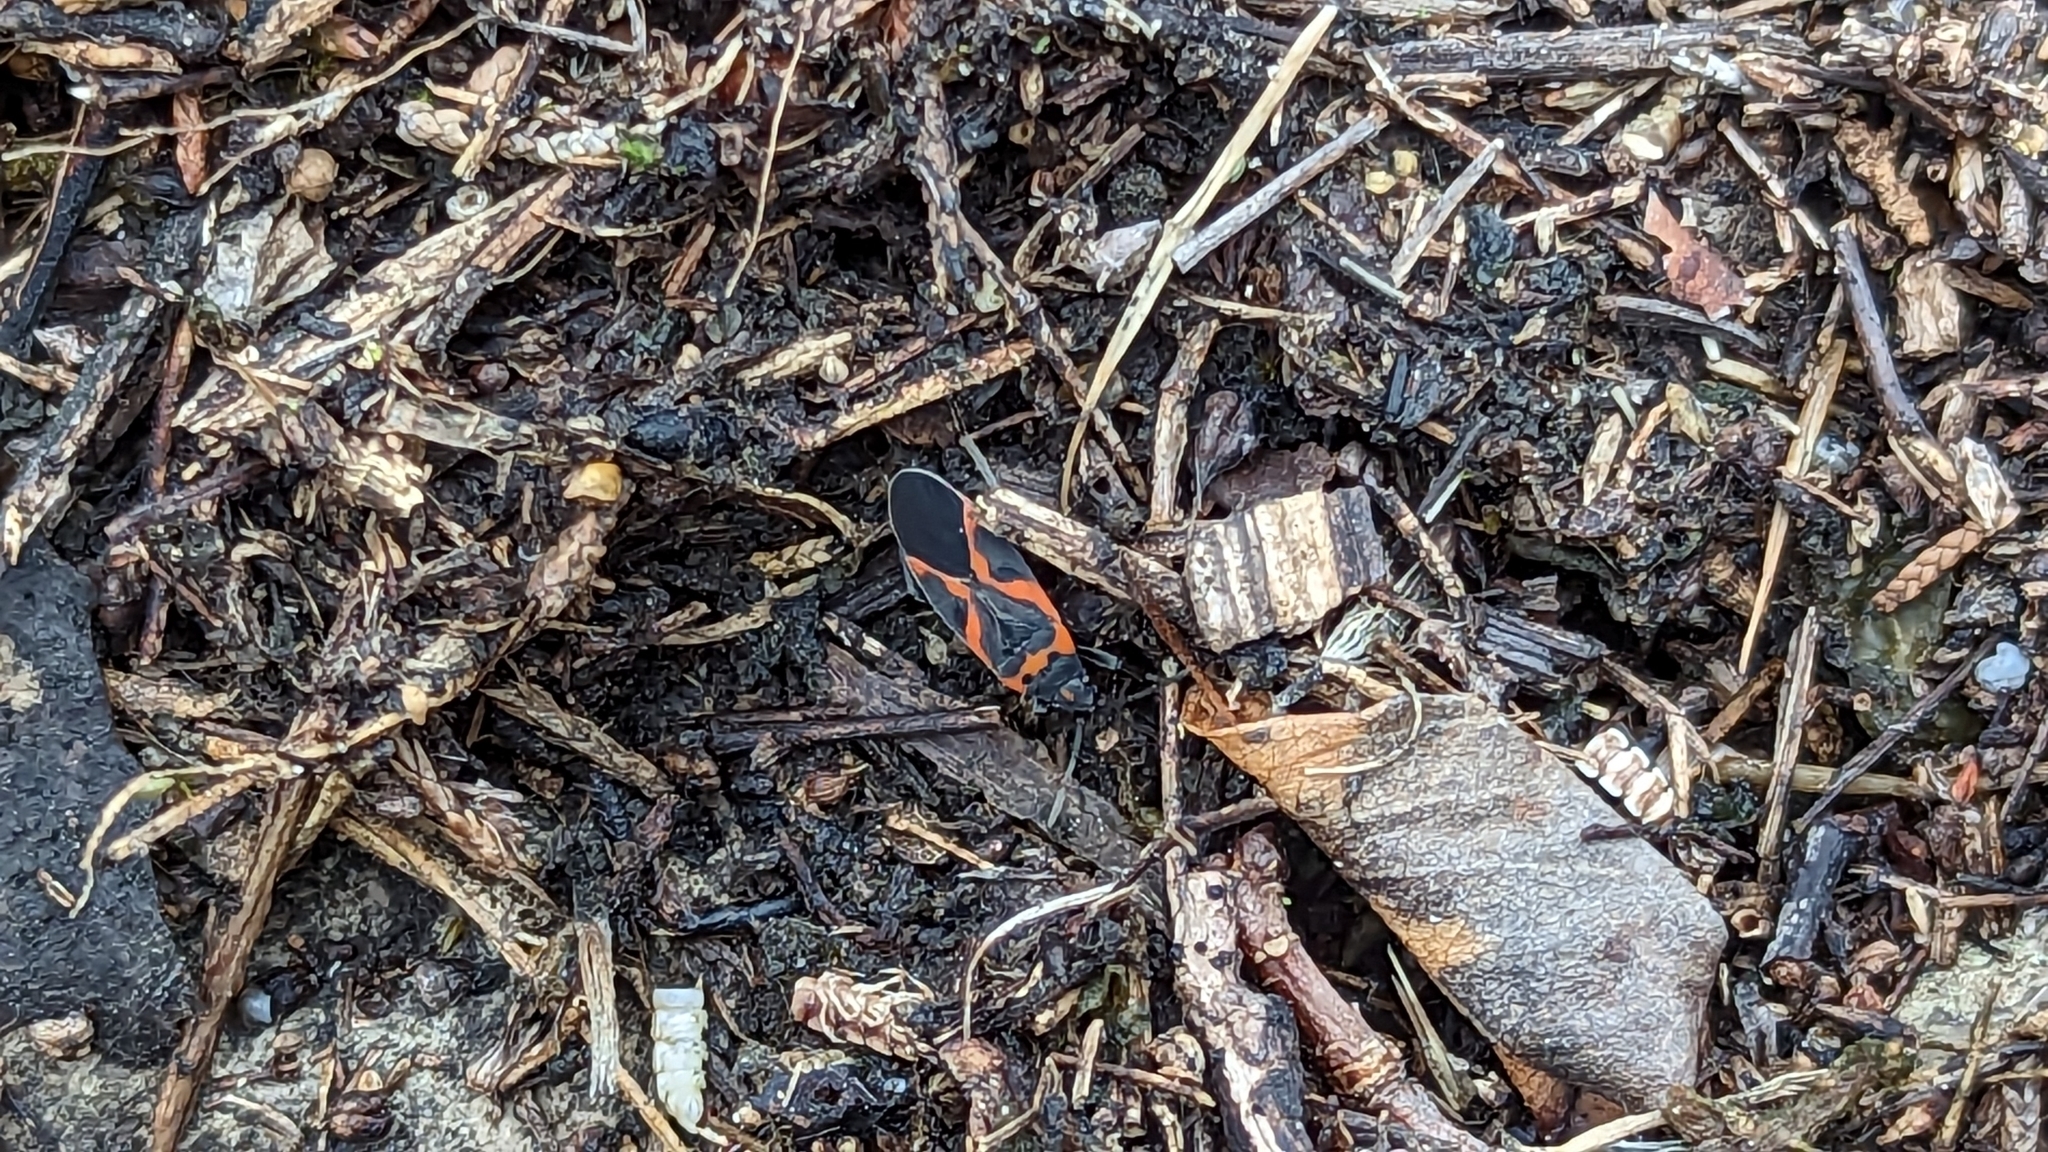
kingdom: Animalia
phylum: Arthropoda
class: Insecta
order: Hemiptera
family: Lygaeidae
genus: Lygaeus
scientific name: Lygaeus kalmii
